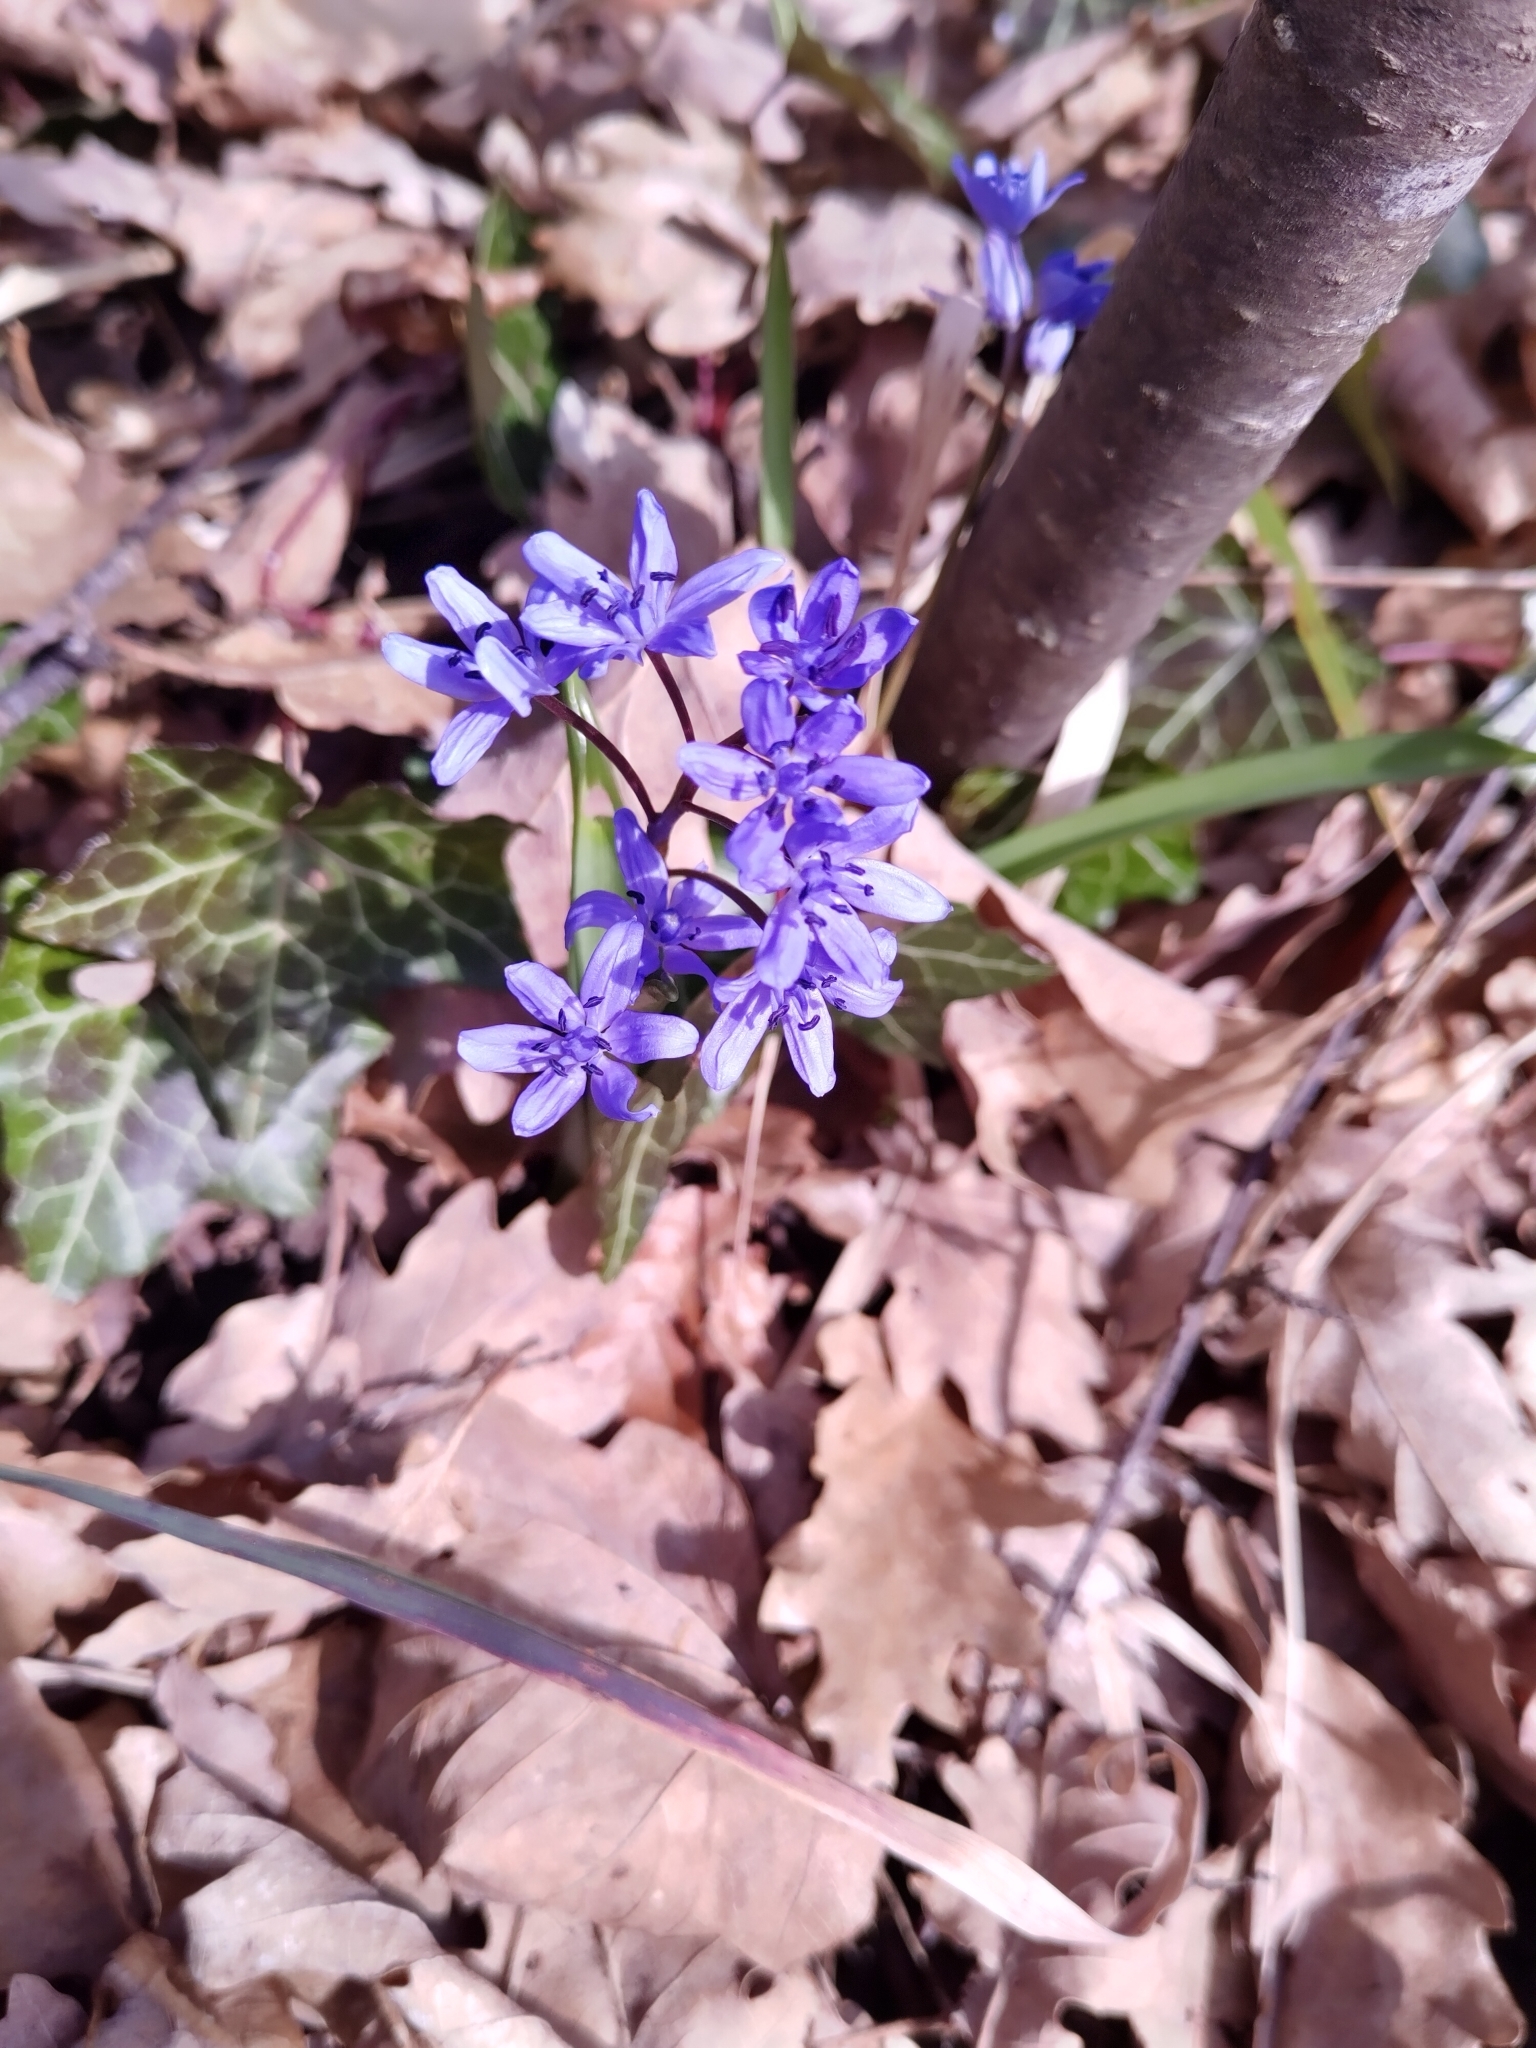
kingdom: Plantae
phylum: Tracheophyta
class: Liliopsida
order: Asparagales
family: Asparagaceae
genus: Scilla
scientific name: Scilla bifolia
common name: Alpine squill
